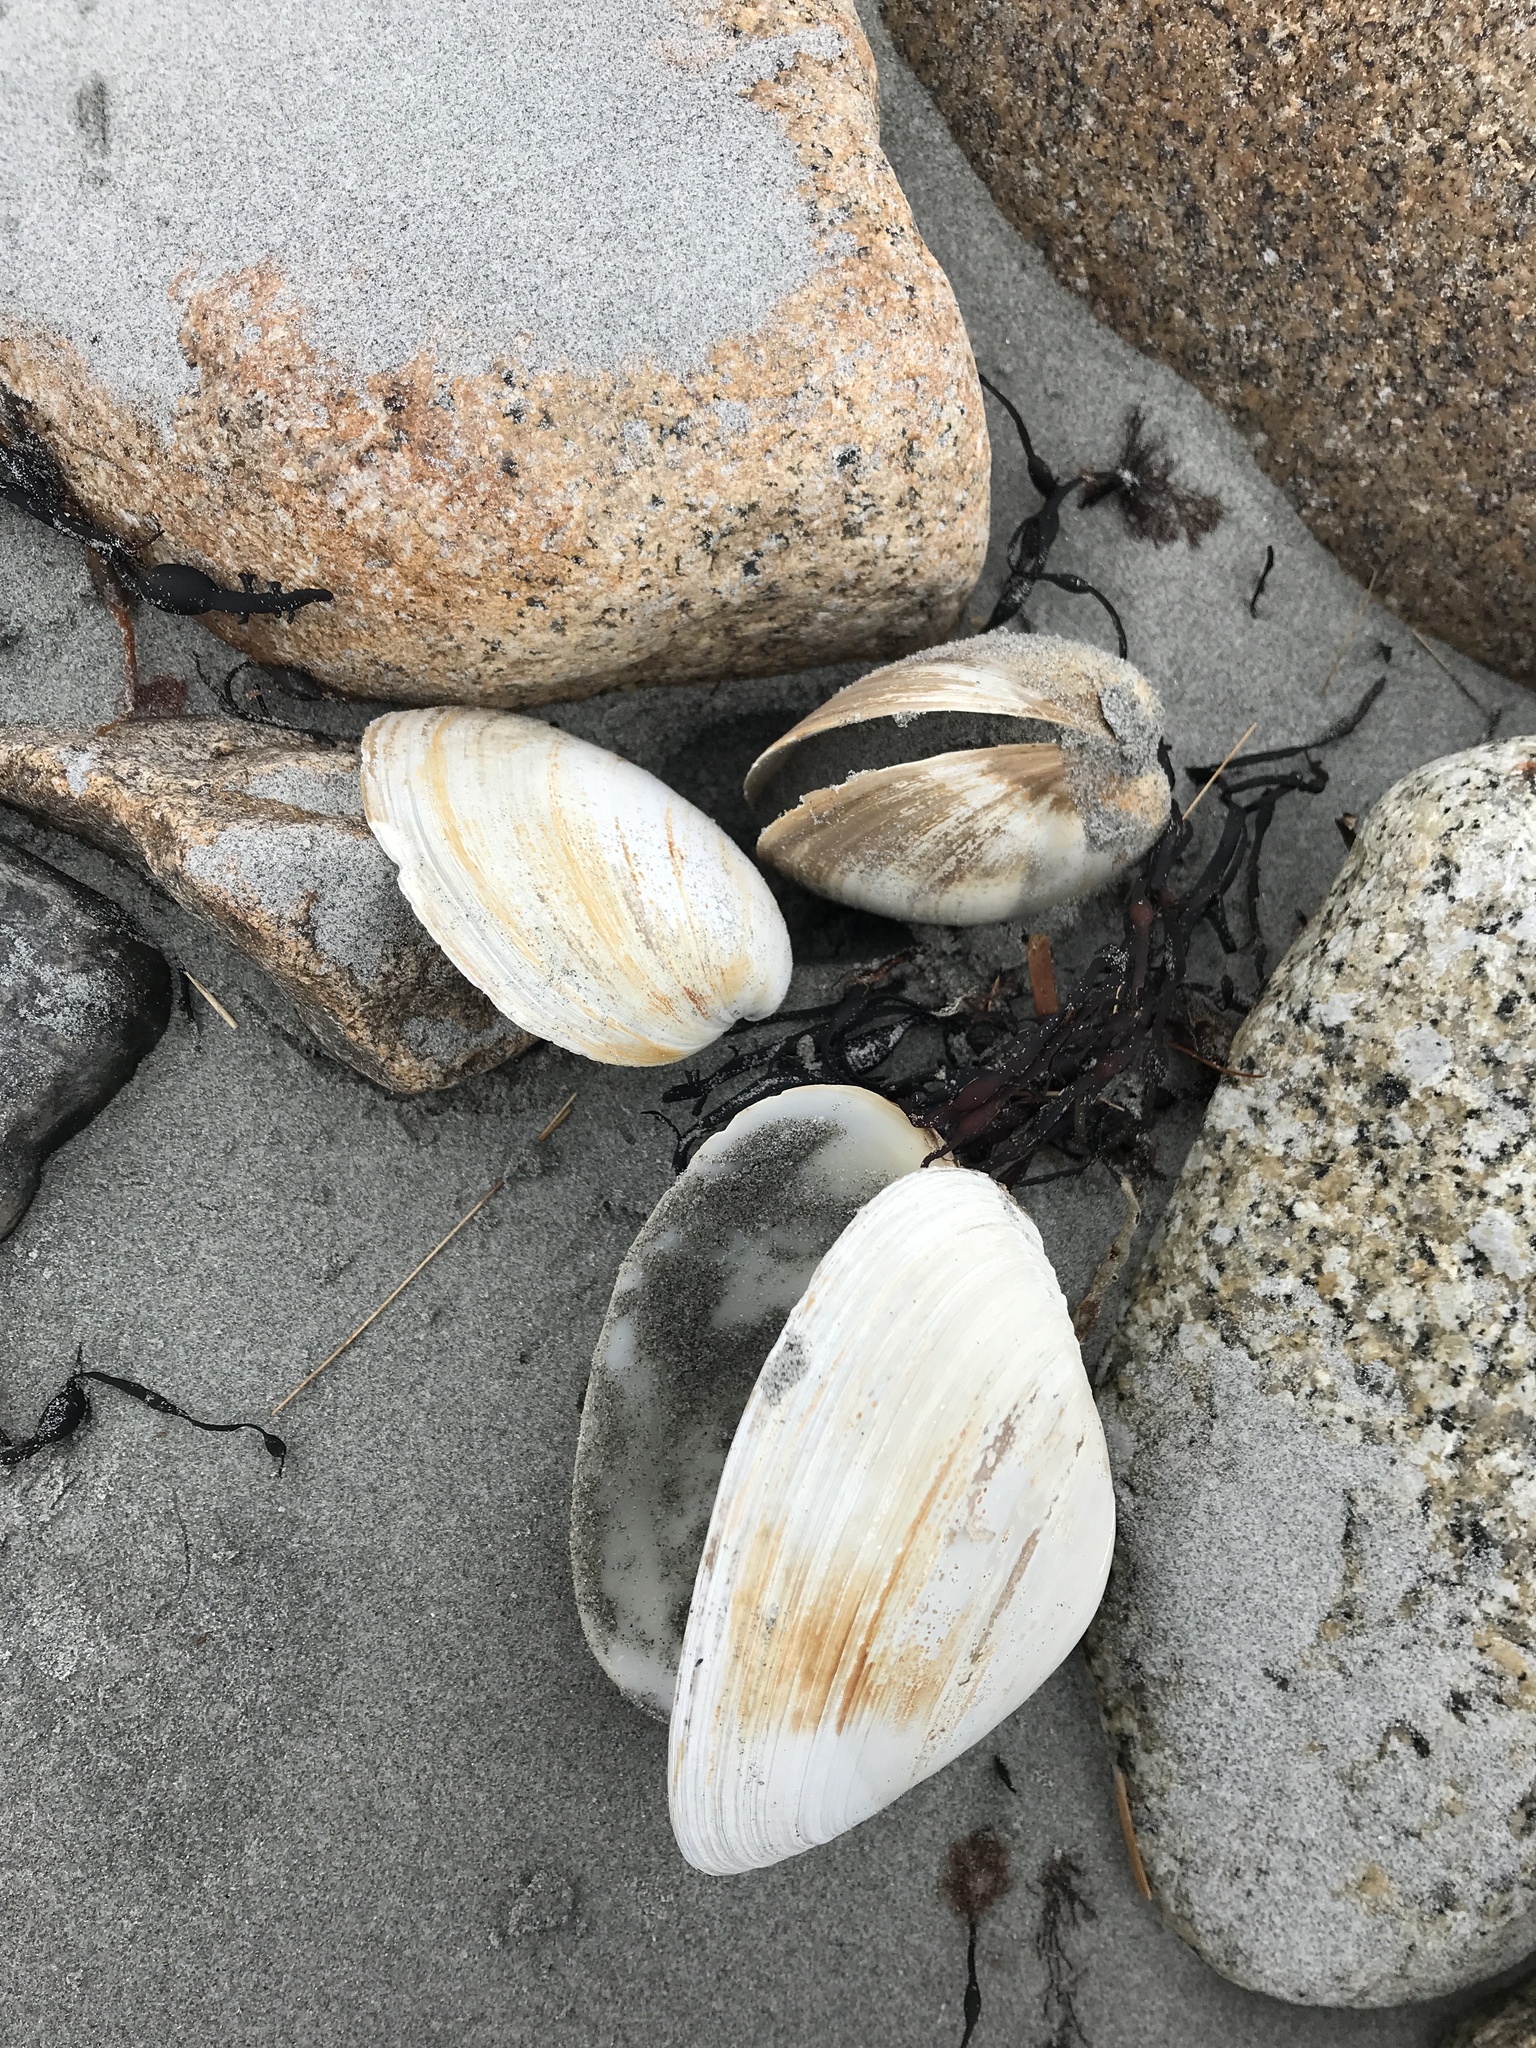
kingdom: Animalia
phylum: Mollusca
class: Bivalvia
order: Venerida
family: Mactridae
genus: Spisula
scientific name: Spisula solidissima
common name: Atlantic surf clam
